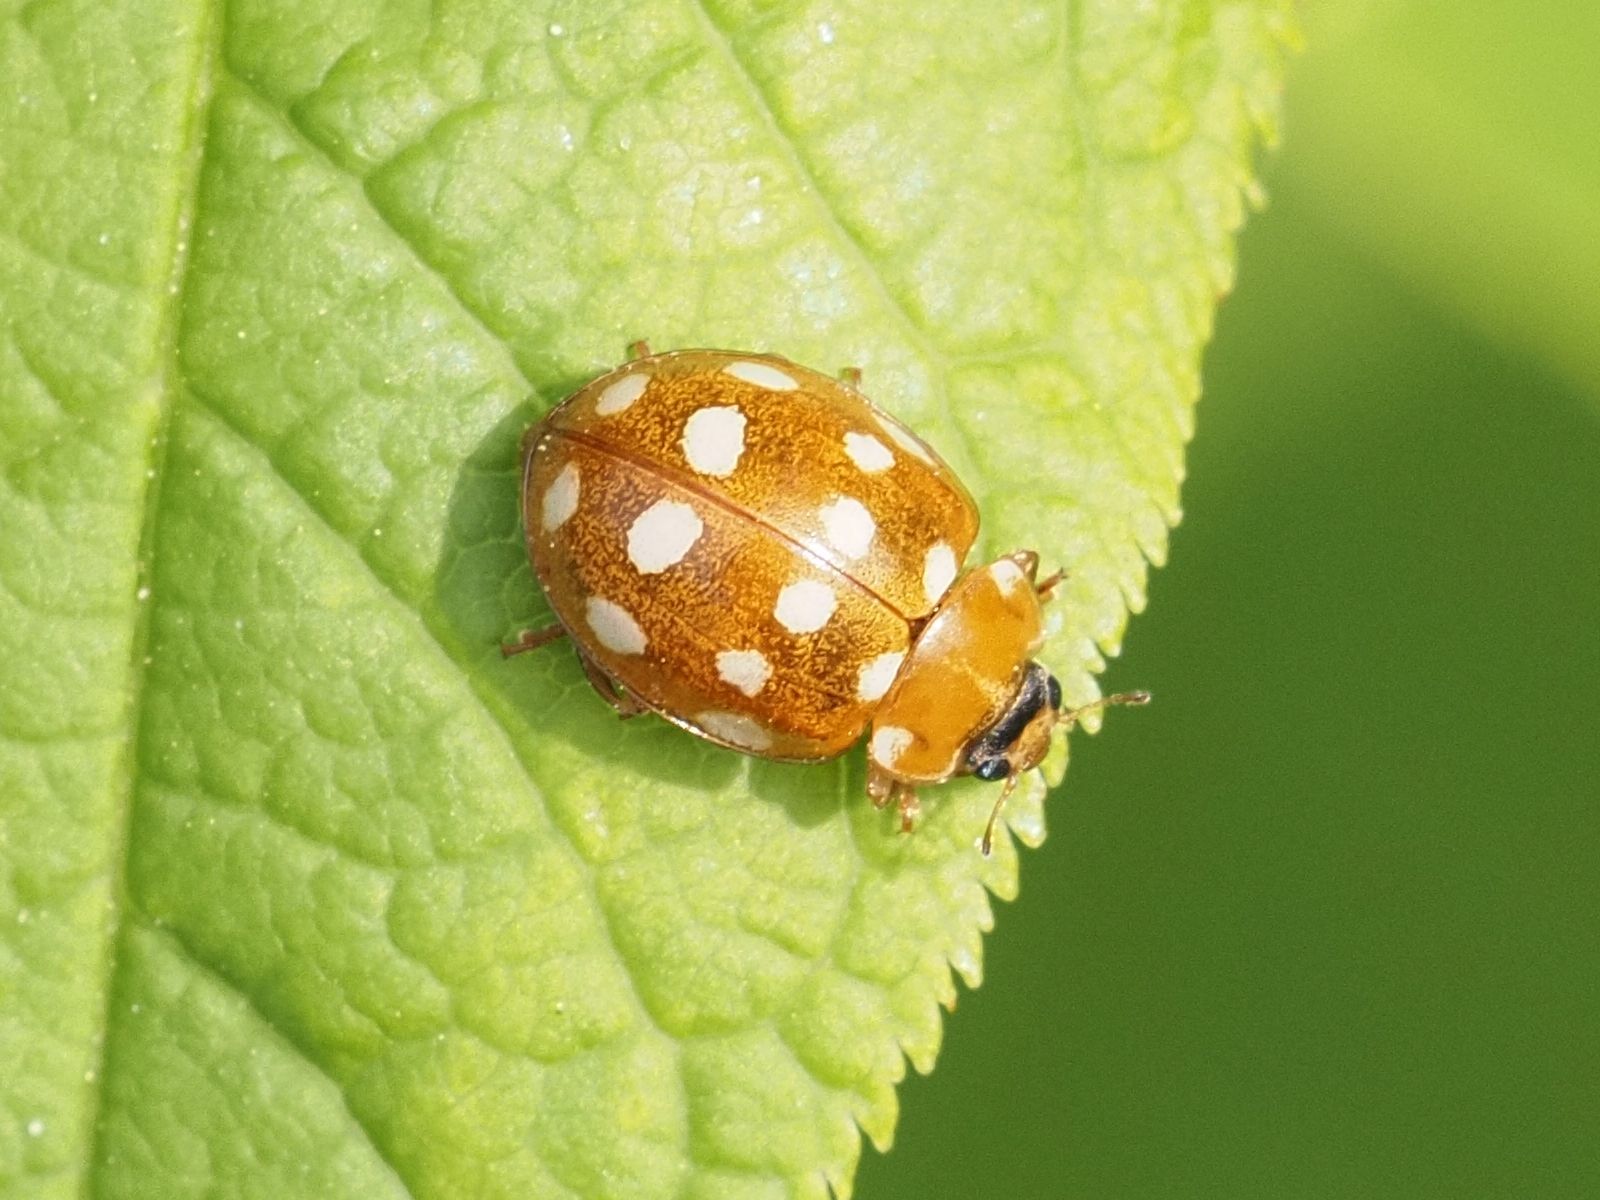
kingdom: Animalia
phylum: Arthropoda
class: Insecta
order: Coleoptera
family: Coccinellidae
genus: Calvia
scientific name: Calvia quatuordecimguttata
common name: Cream-spot ladybird
